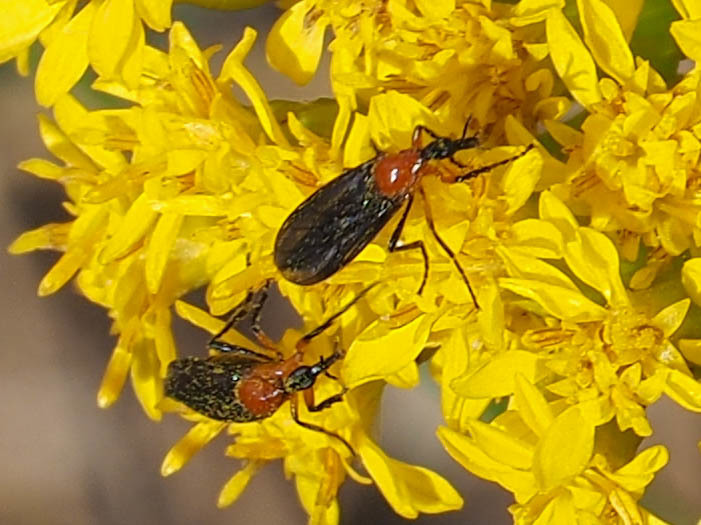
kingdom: Animalia
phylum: Arthropoda
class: Insecta
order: Diptera
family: Bibionidae
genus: Dilophus
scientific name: Dilophus spinipes
